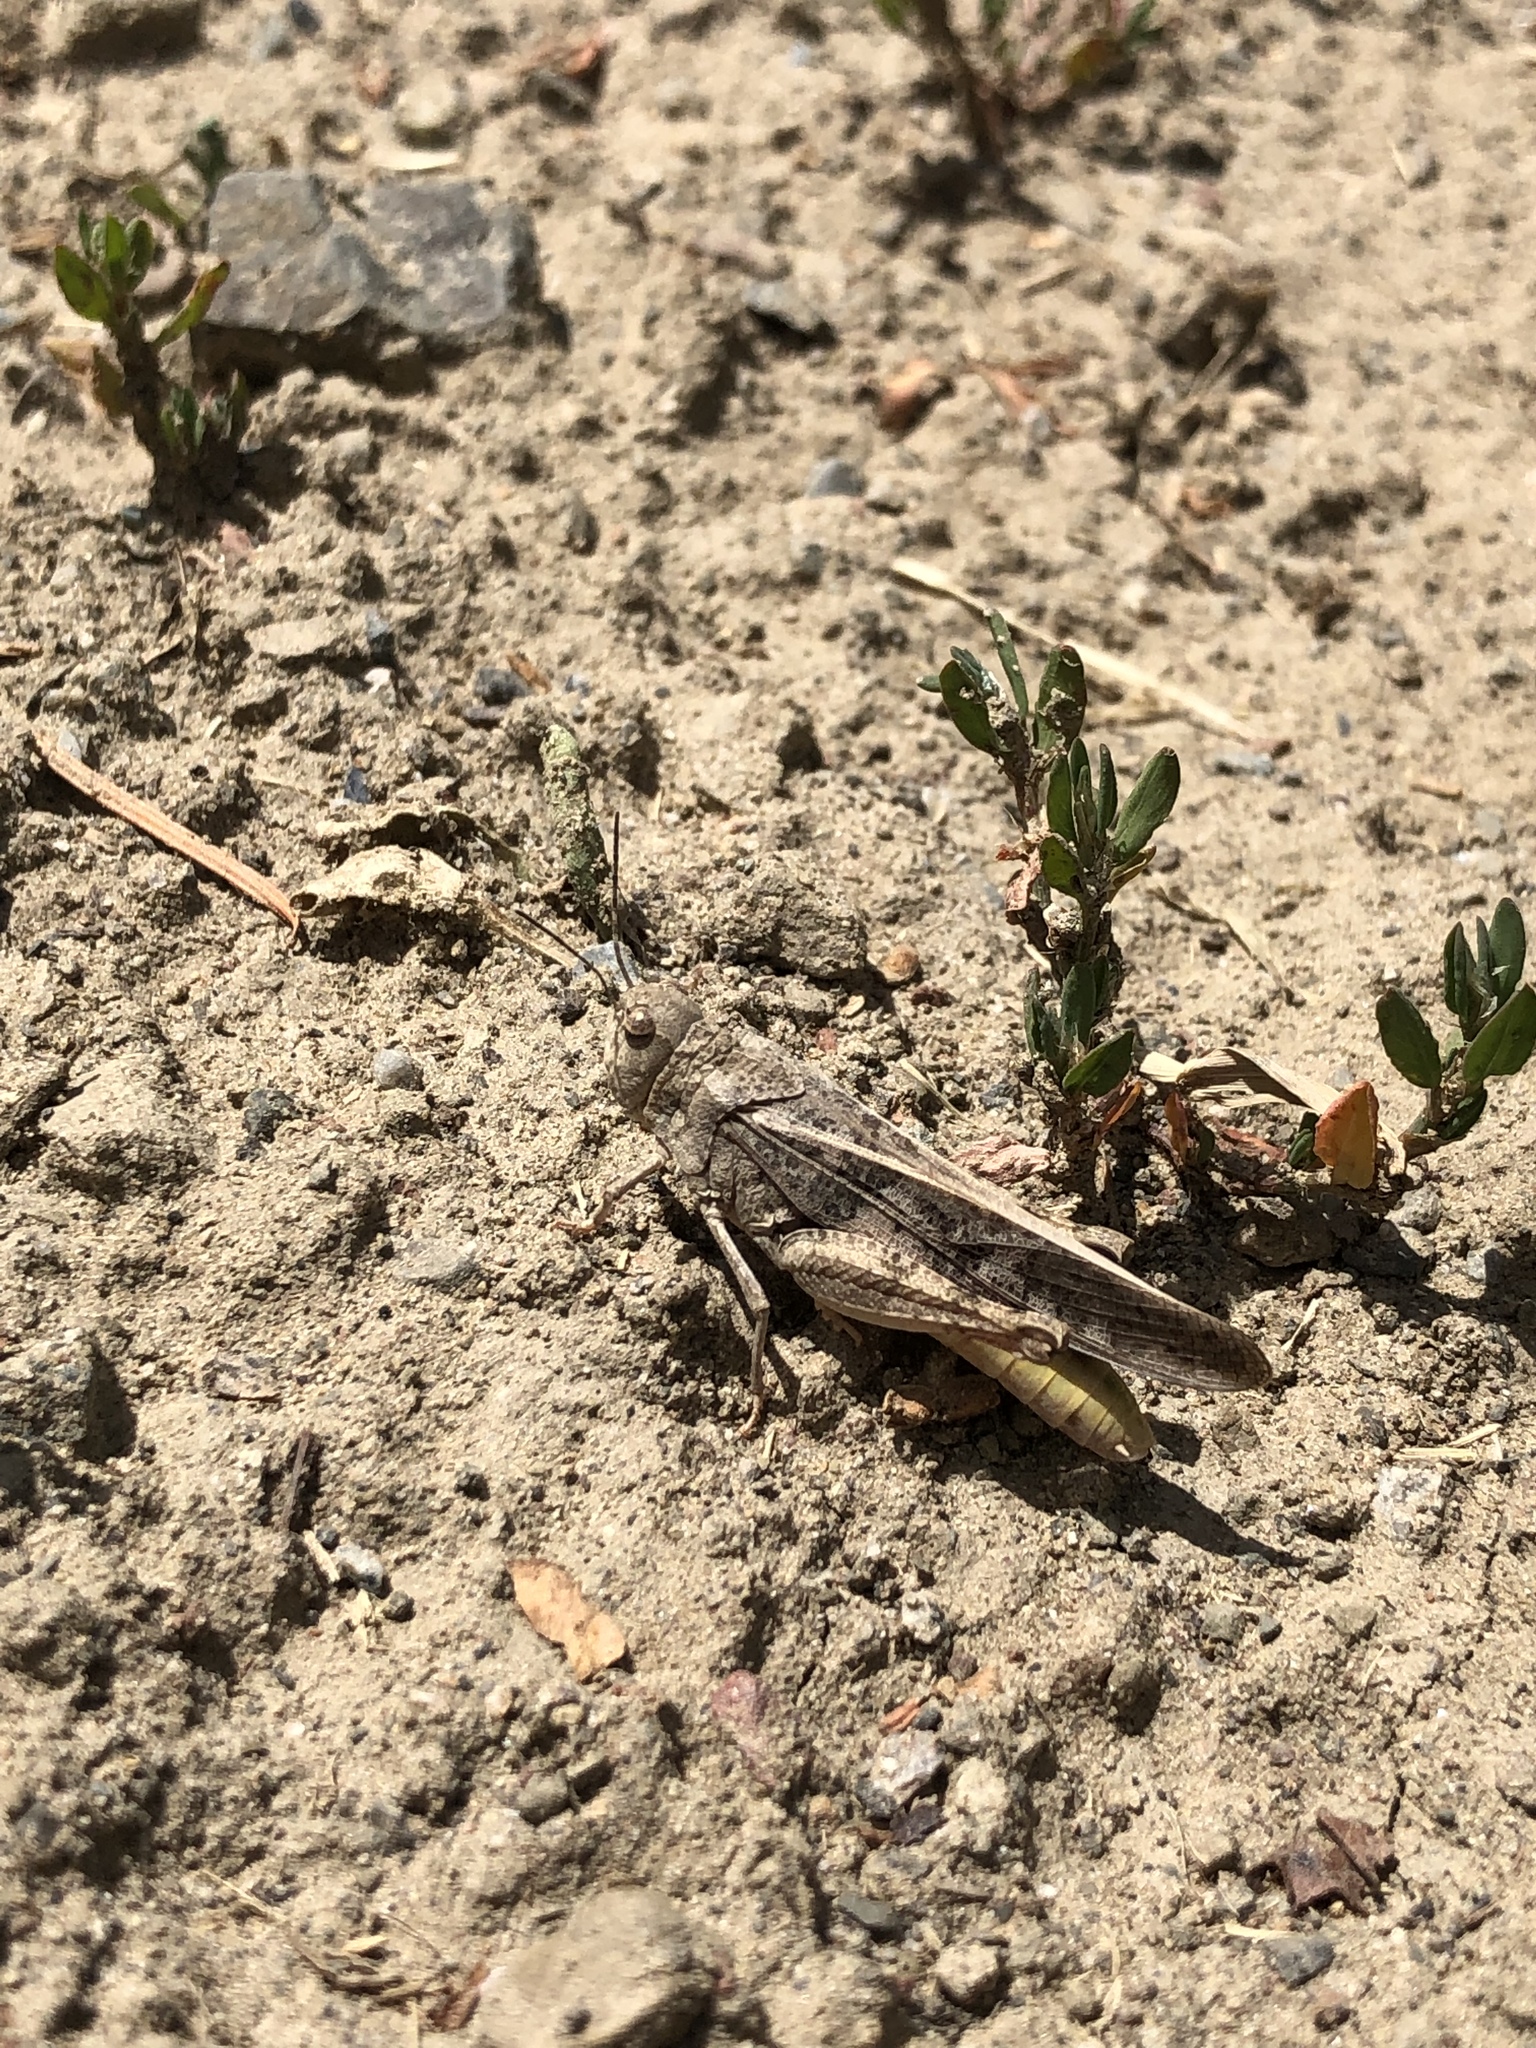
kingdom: Animalia
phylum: Arthropoda
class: Insecta
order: Orthoptera
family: Acrididae
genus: Cratypedes
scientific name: Cratypedes neglectus
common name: Pronotal range grasshopper
